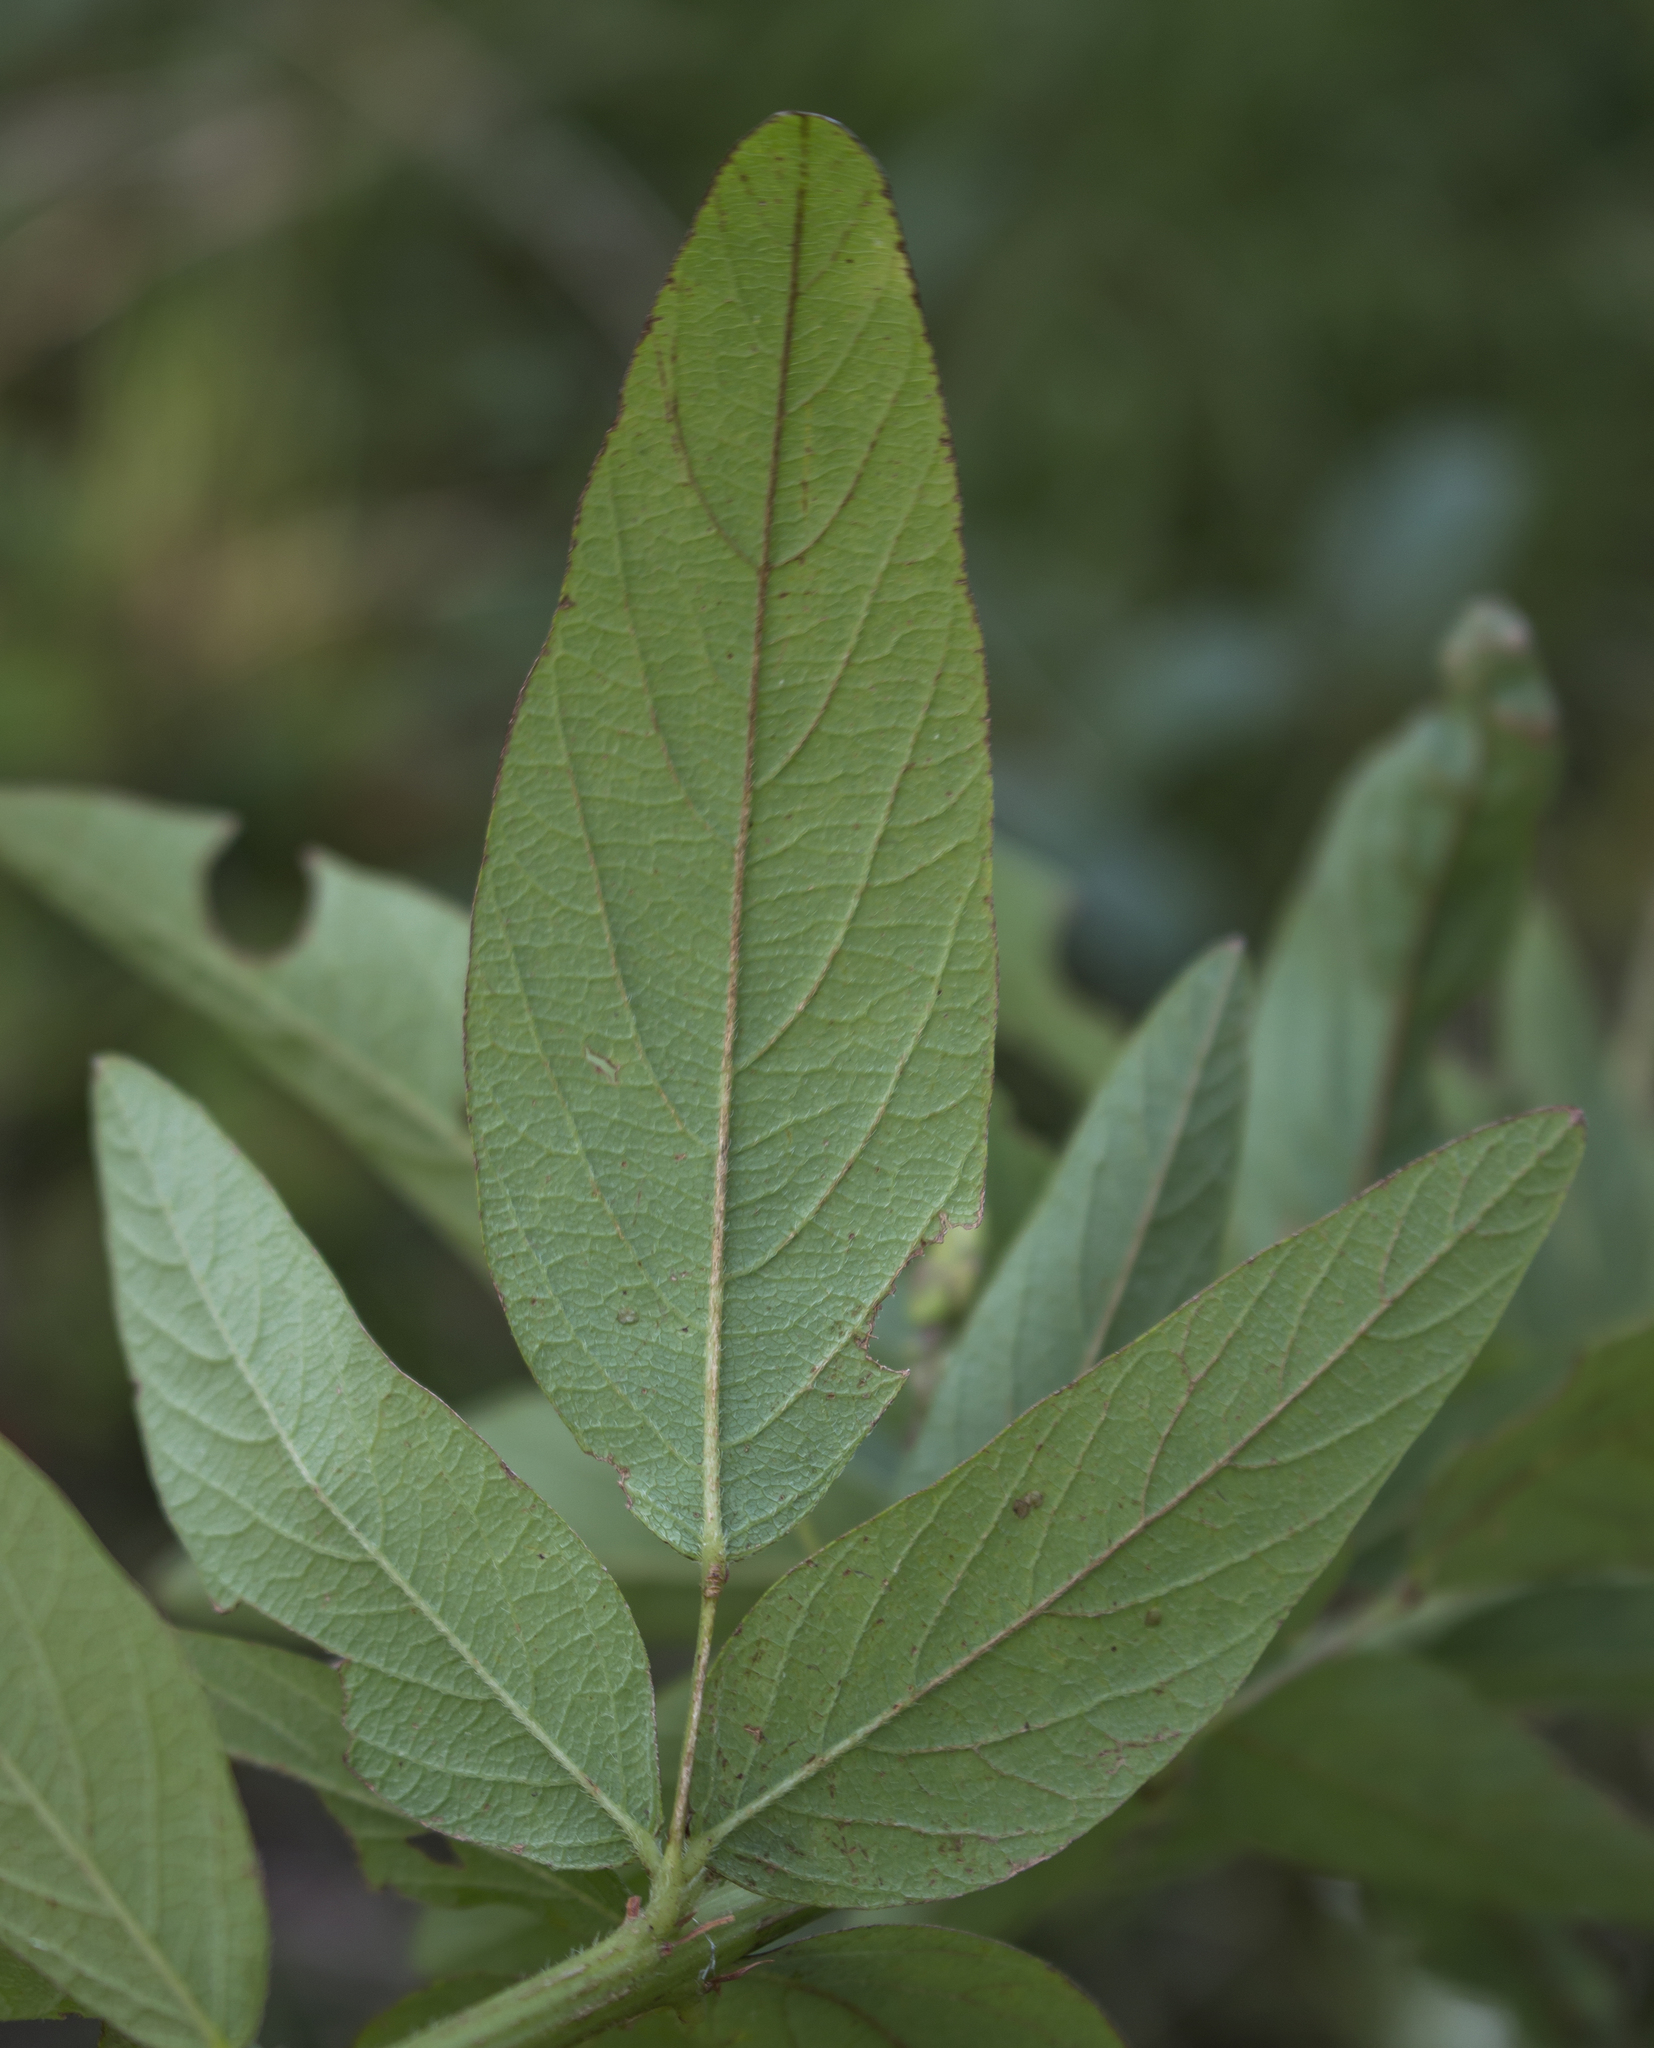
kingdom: Plantae
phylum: Tracheophyta
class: Magnoliopsida
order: Fabales
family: Fabaceae
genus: Desmodium
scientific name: Desmodium canadense
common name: Canada tick-trefoil
